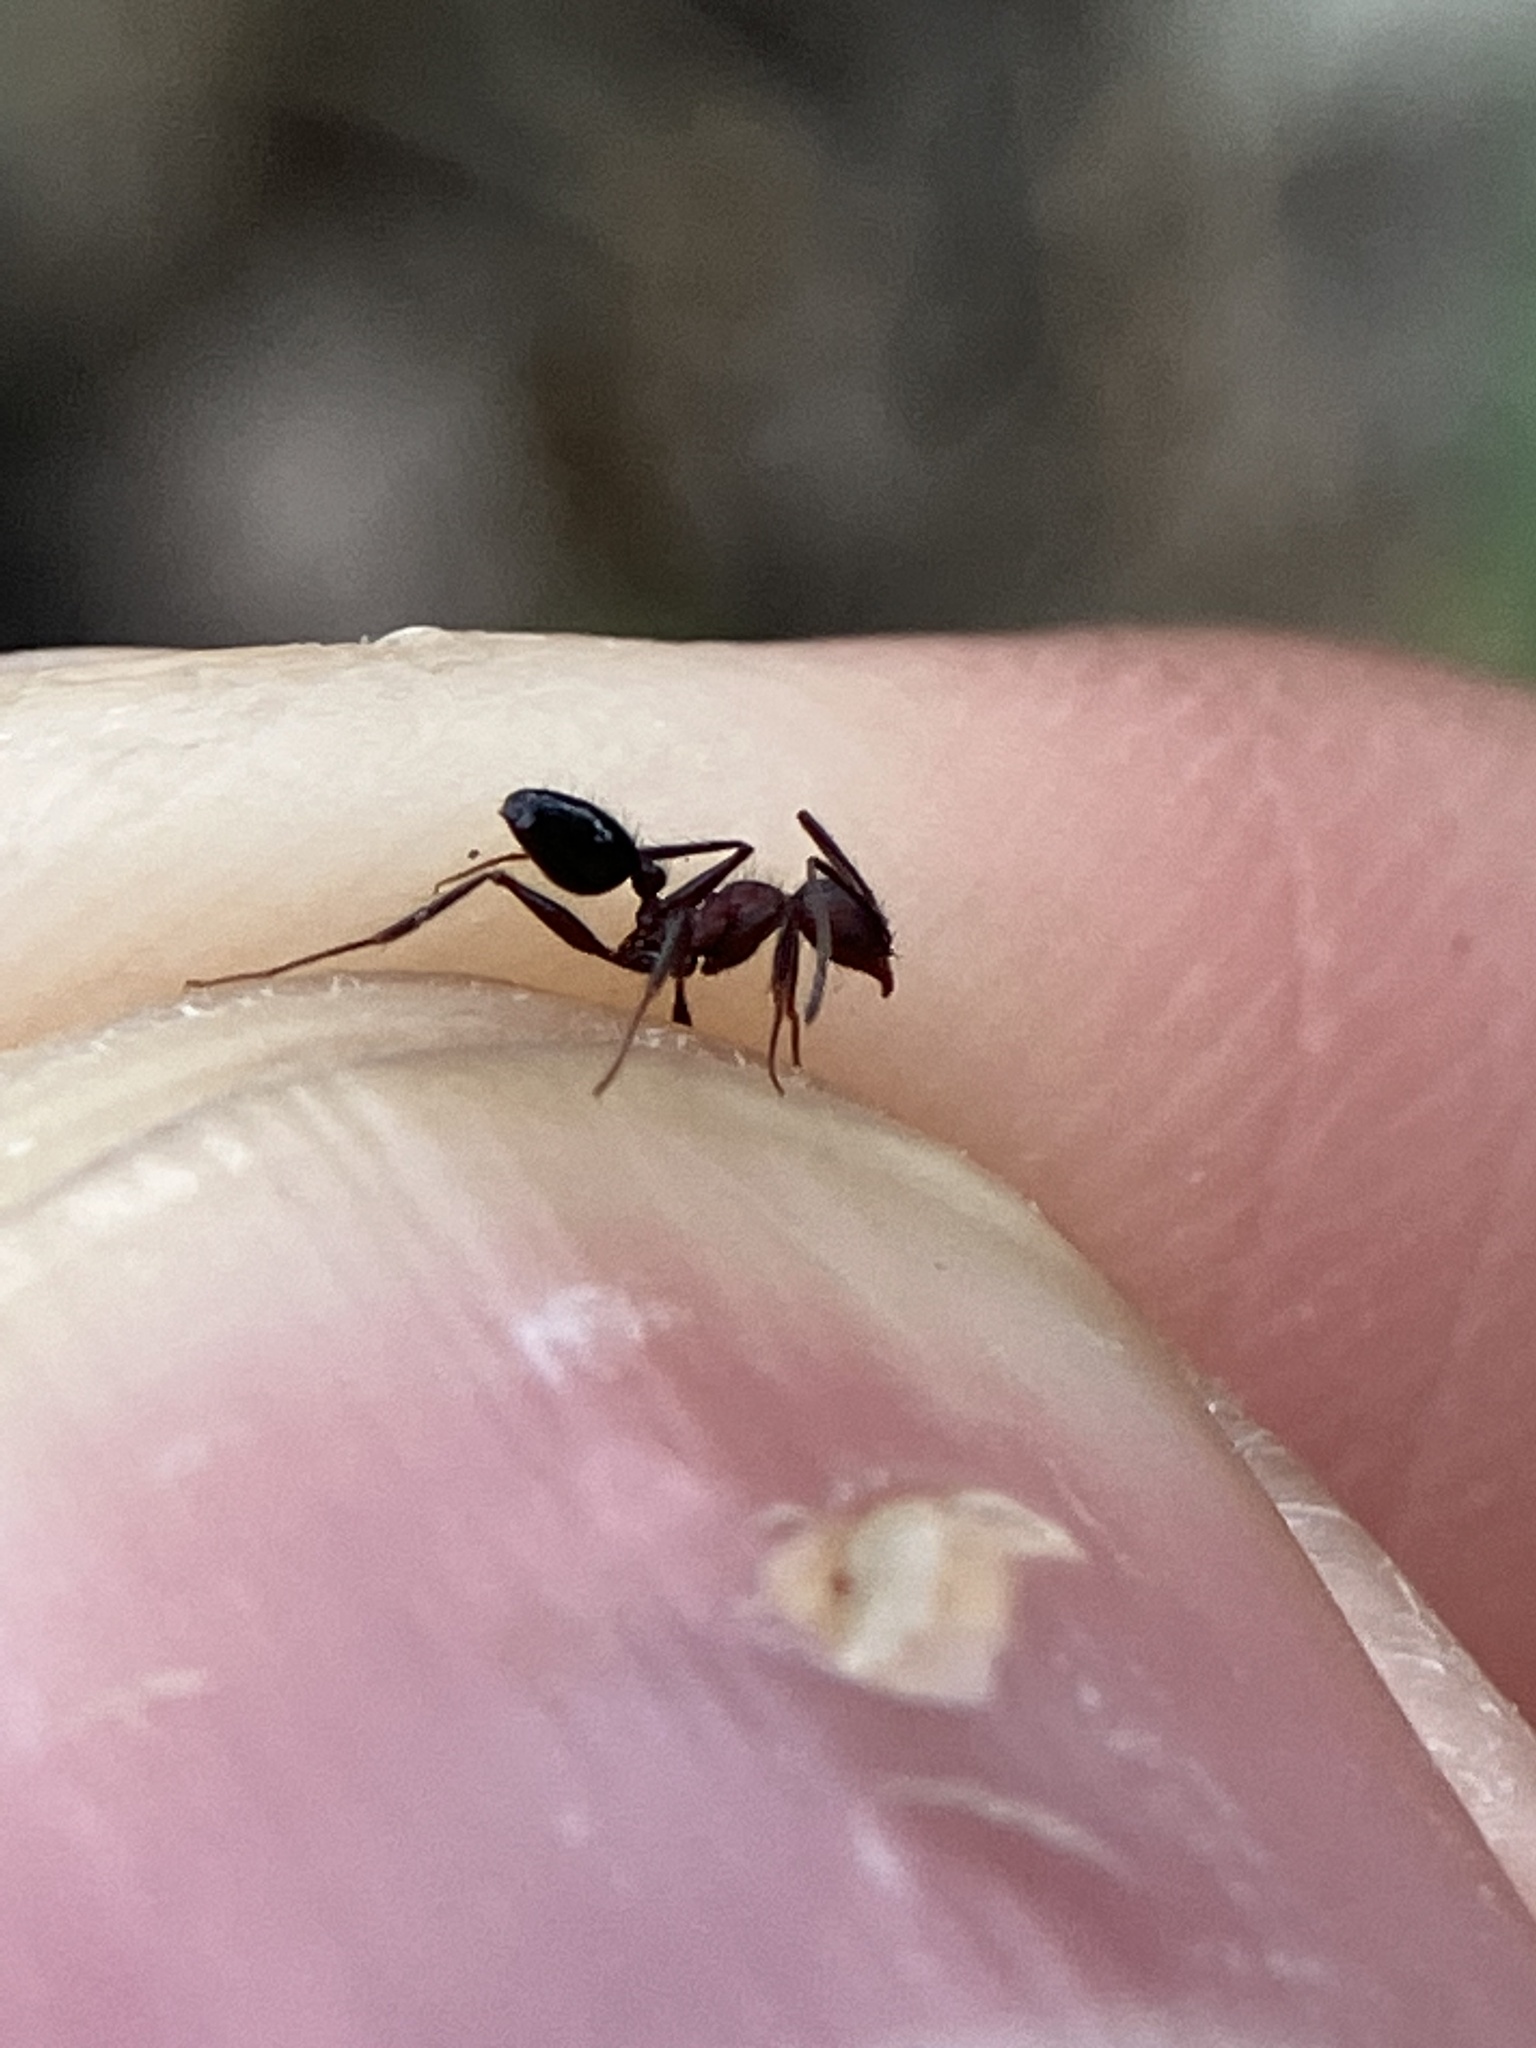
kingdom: Animalia
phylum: Arthropoda
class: Insecta
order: Hymenoptera
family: Formicidae
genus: Pheidole
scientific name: Pheidole sharpi
